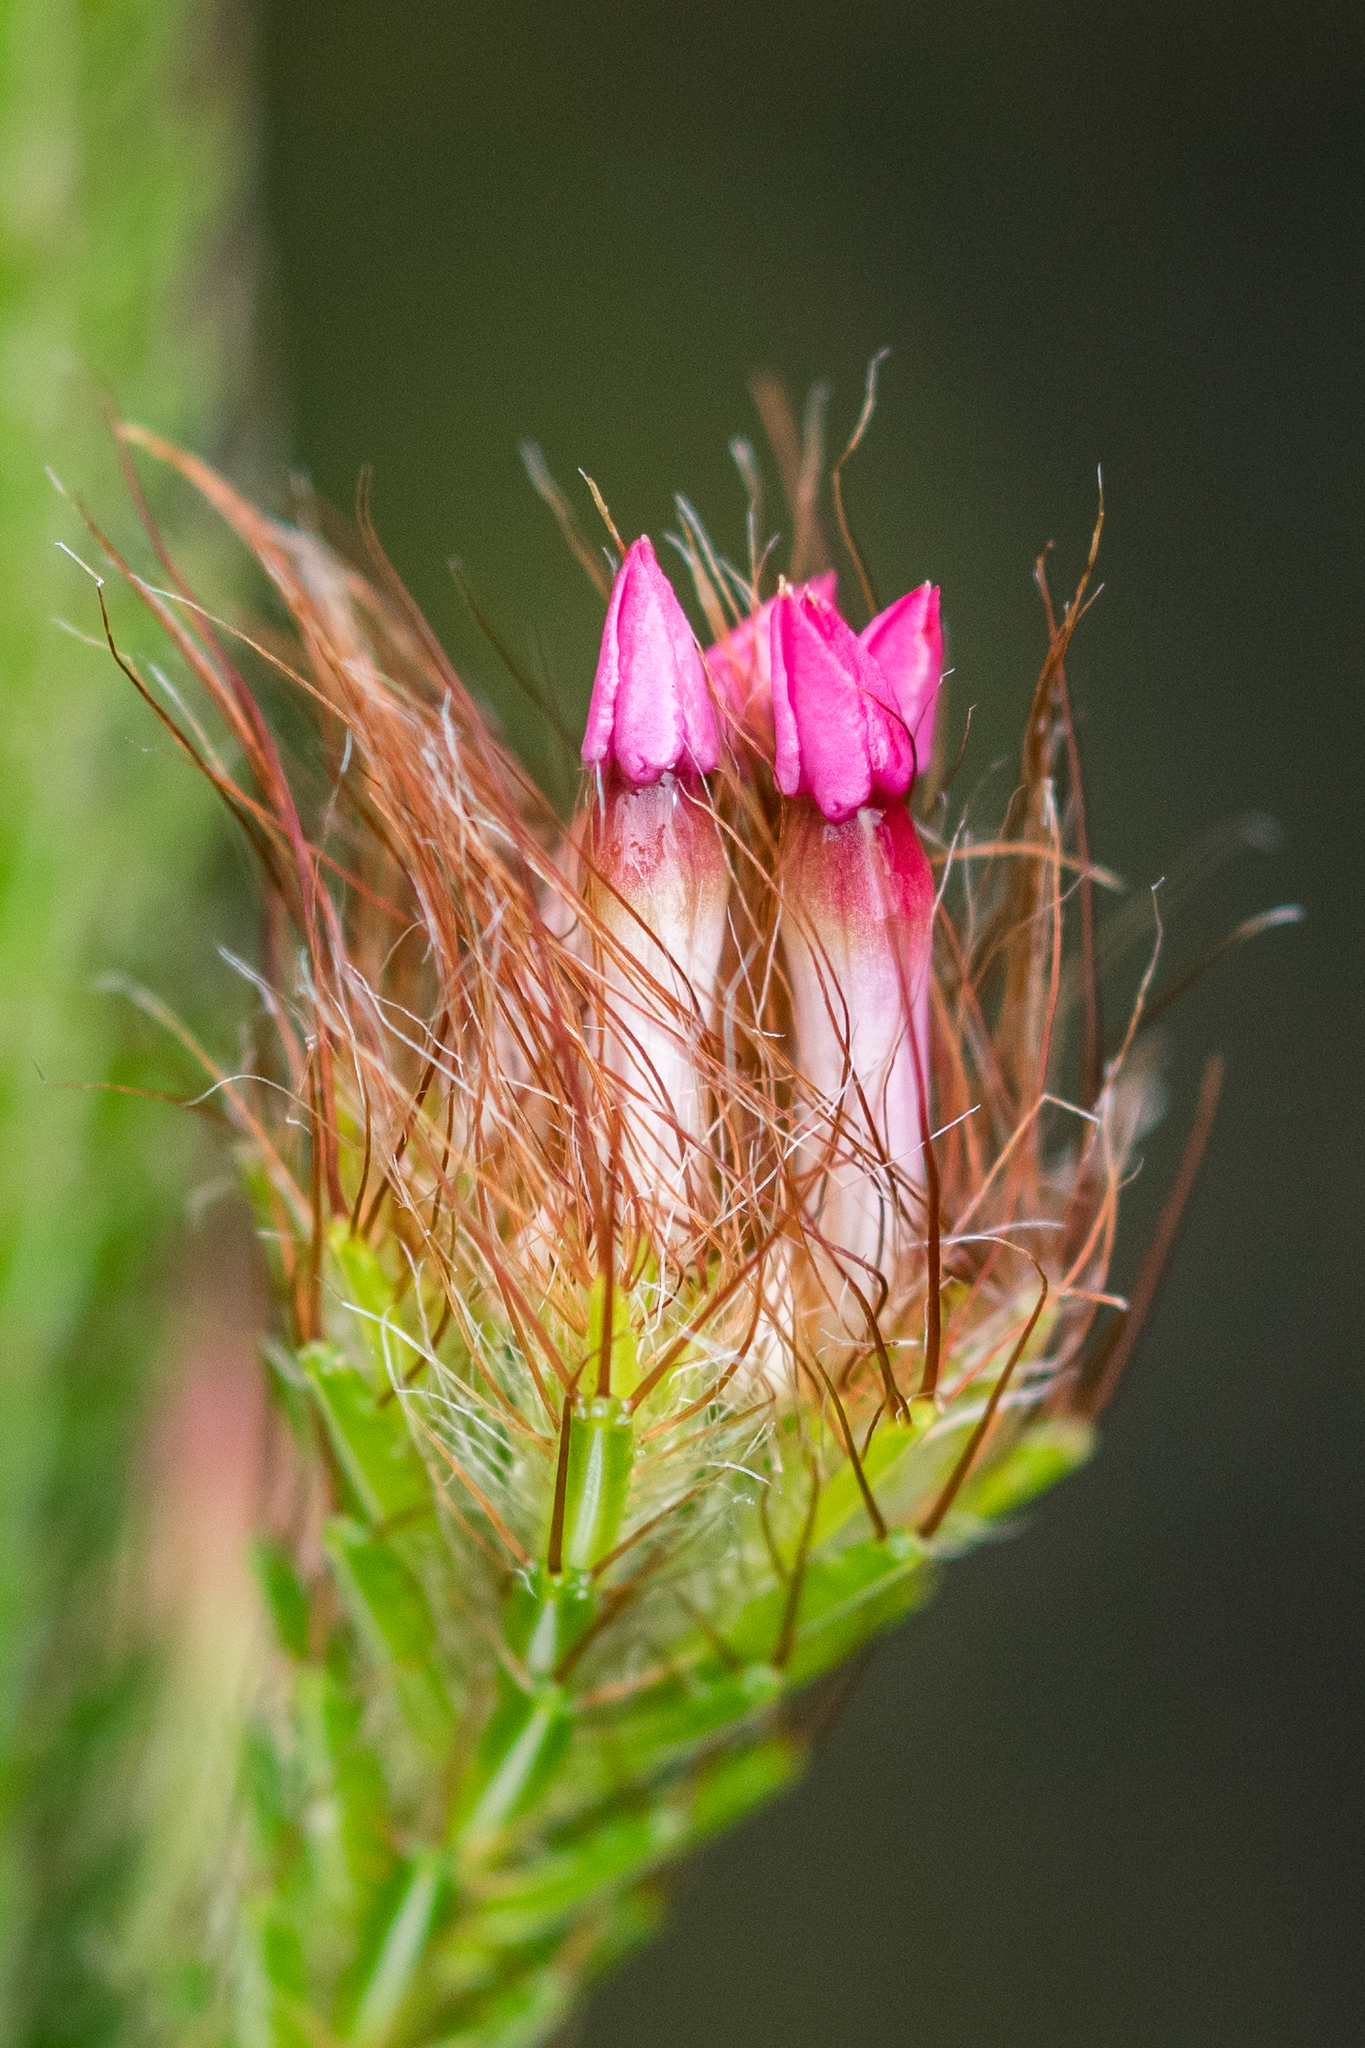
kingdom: Plantae
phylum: Tracheophyta
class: Magnoliopsida
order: Ericales
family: Ericaceae
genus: Erica
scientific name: Erica gysbertii
